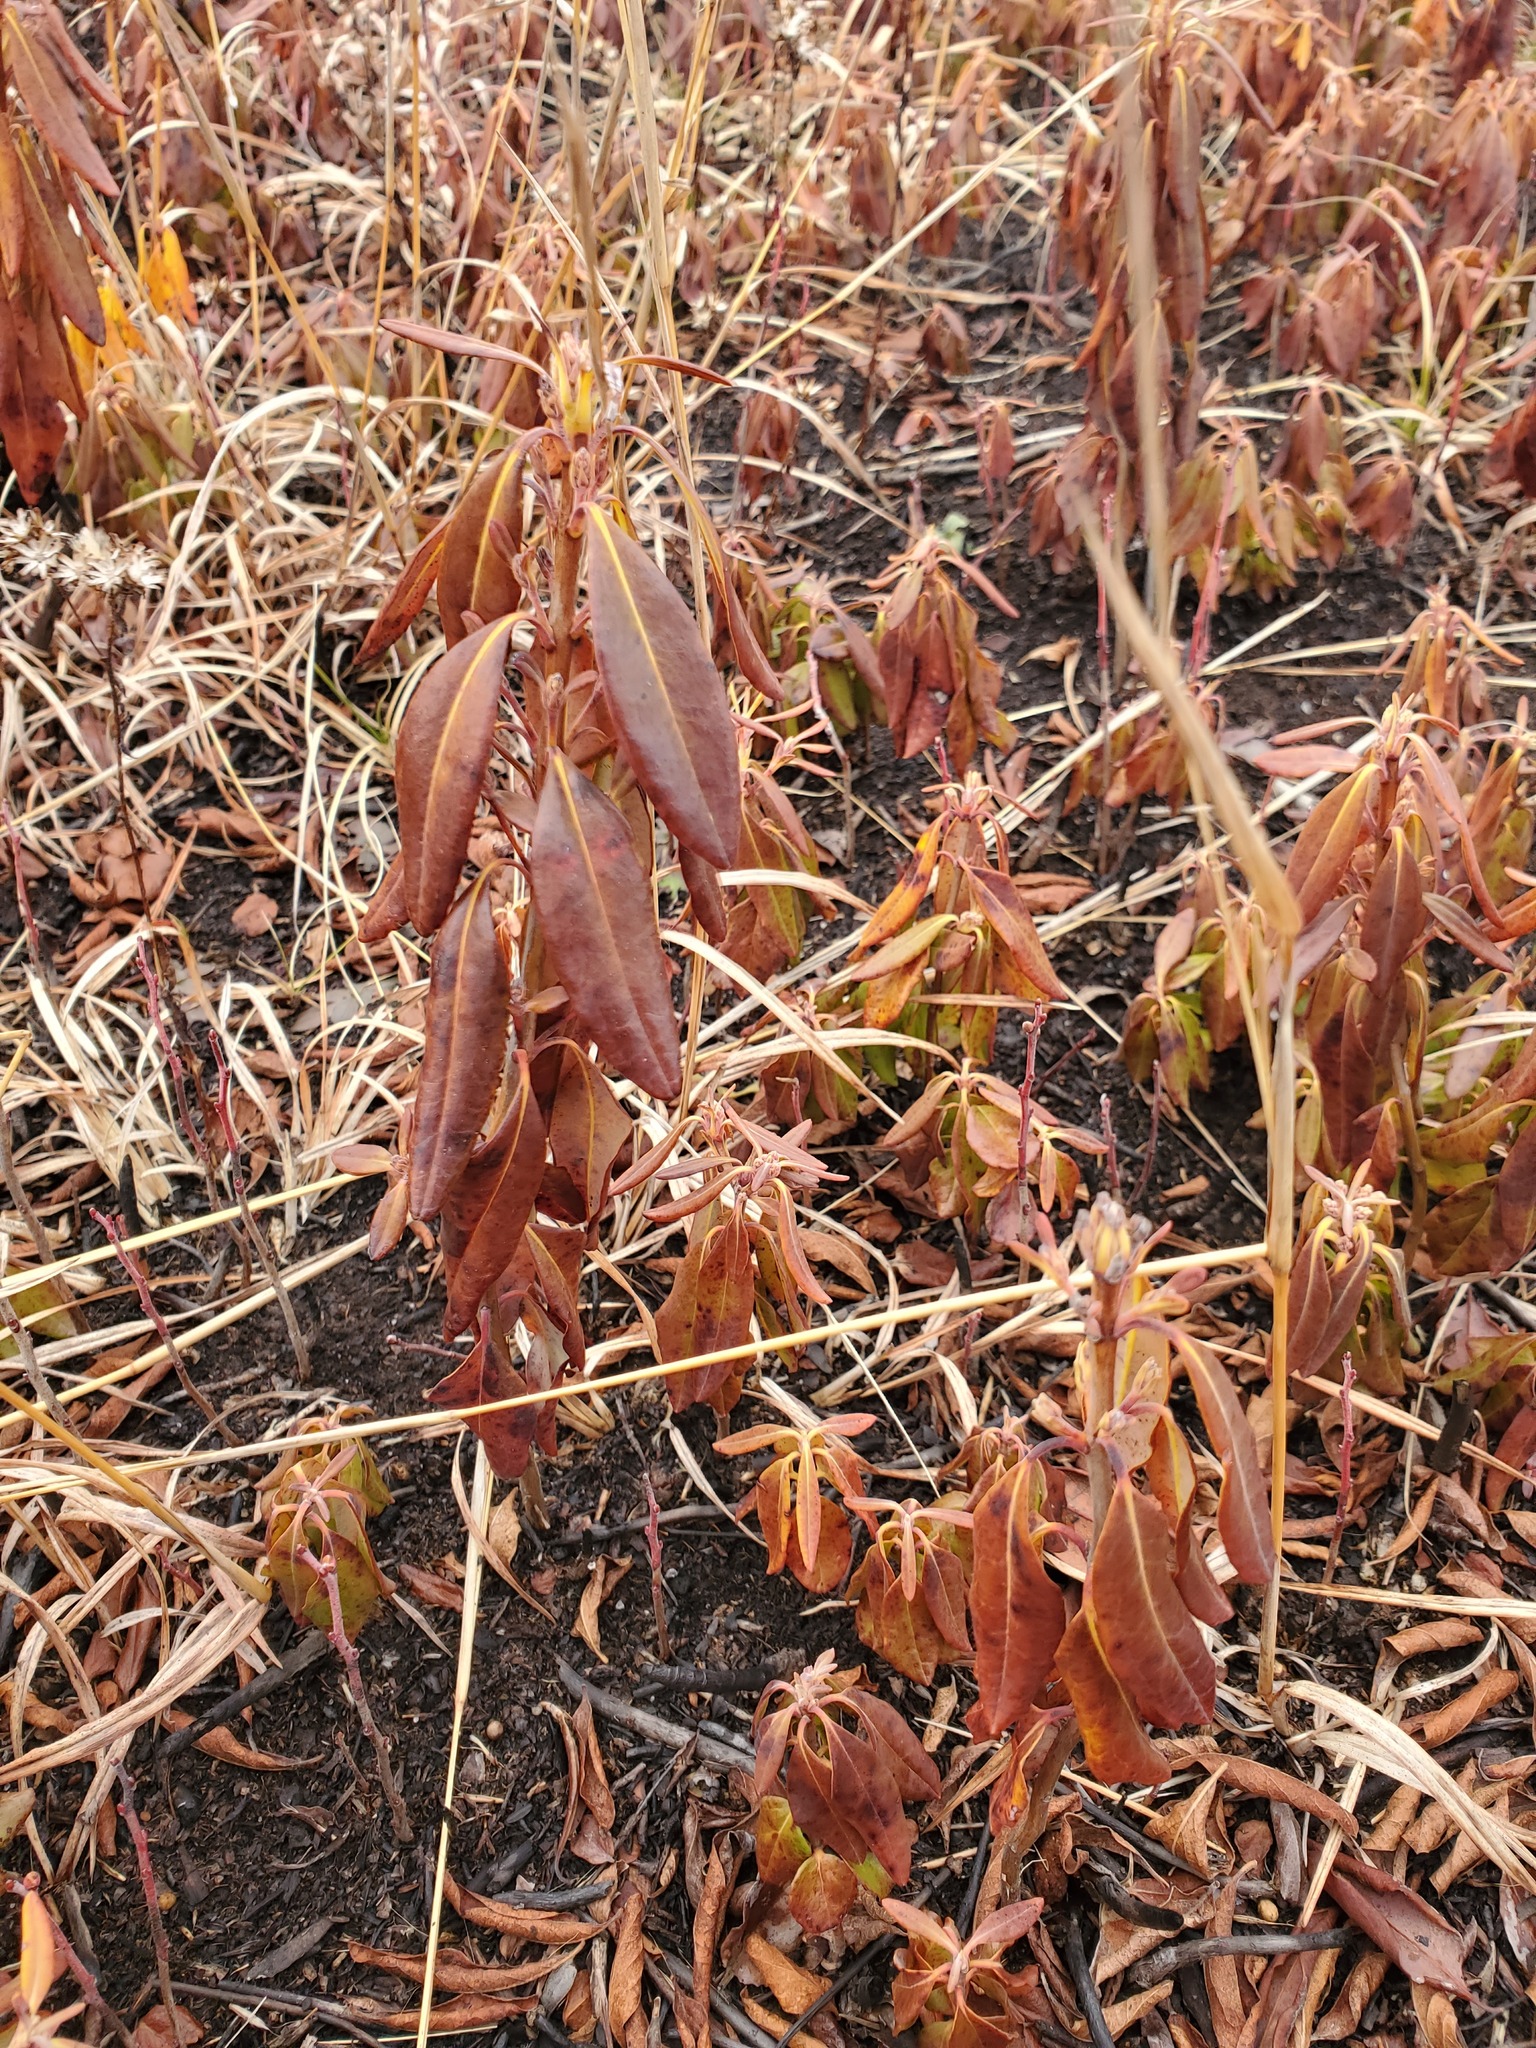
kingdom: Plantae
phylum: Tracheophyta
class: Magnoliopsida
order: Ericales
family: Ericaceae
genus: Kalmia
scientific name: Kalmia angustifolia
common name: Sheep-laurel
